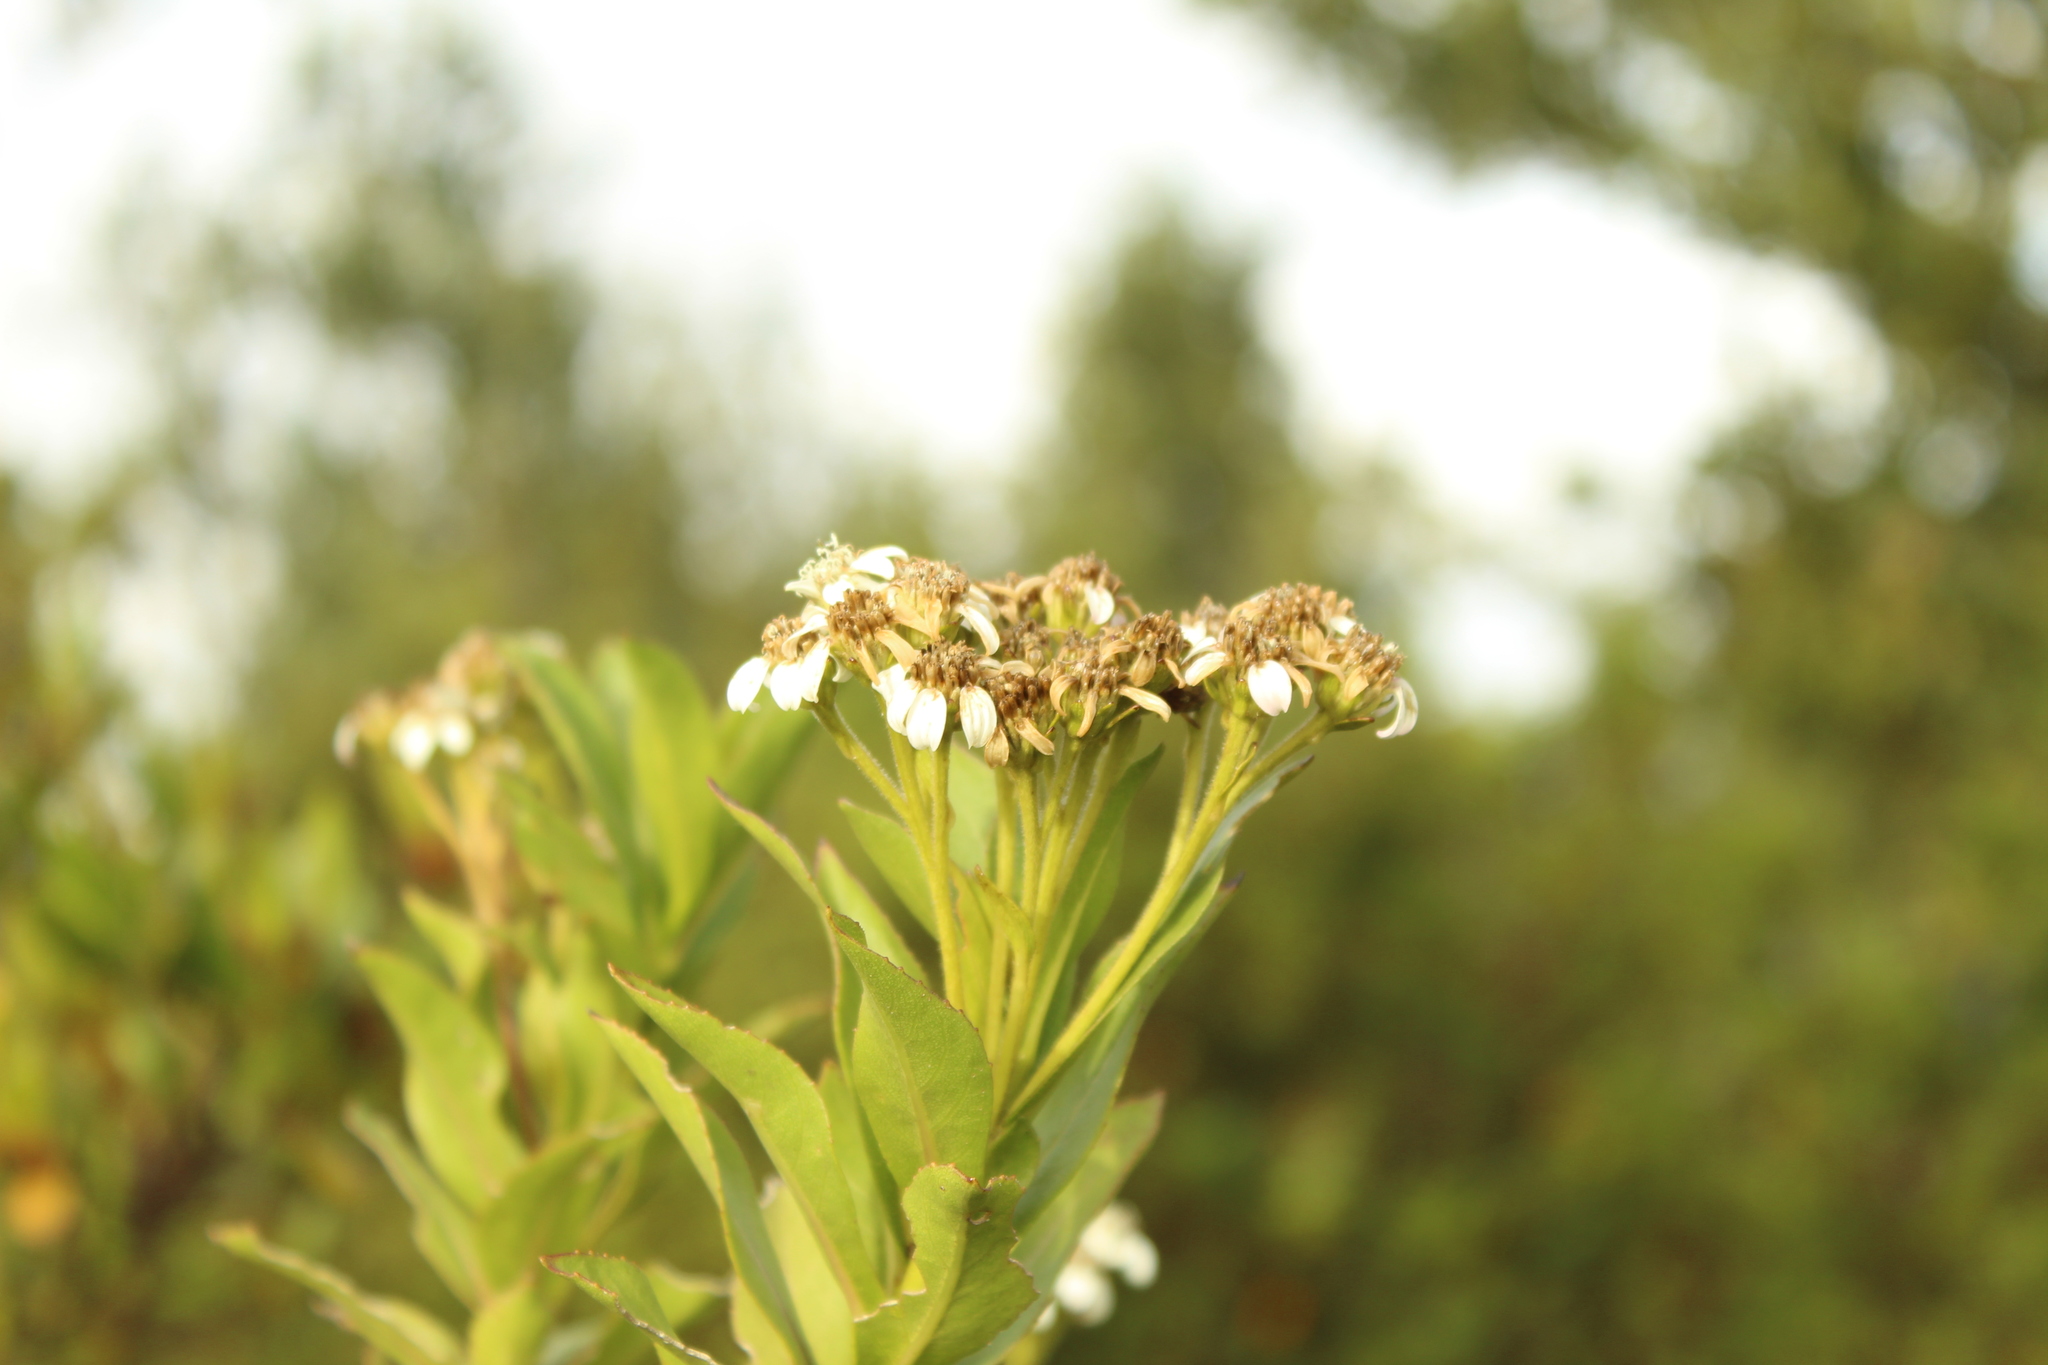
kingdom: Plantae
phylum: Tracheophyta
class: Magnoliopsida
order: Asterales
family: Asteraceae
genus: Verbesina
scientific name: Verbesina centroboyacana
